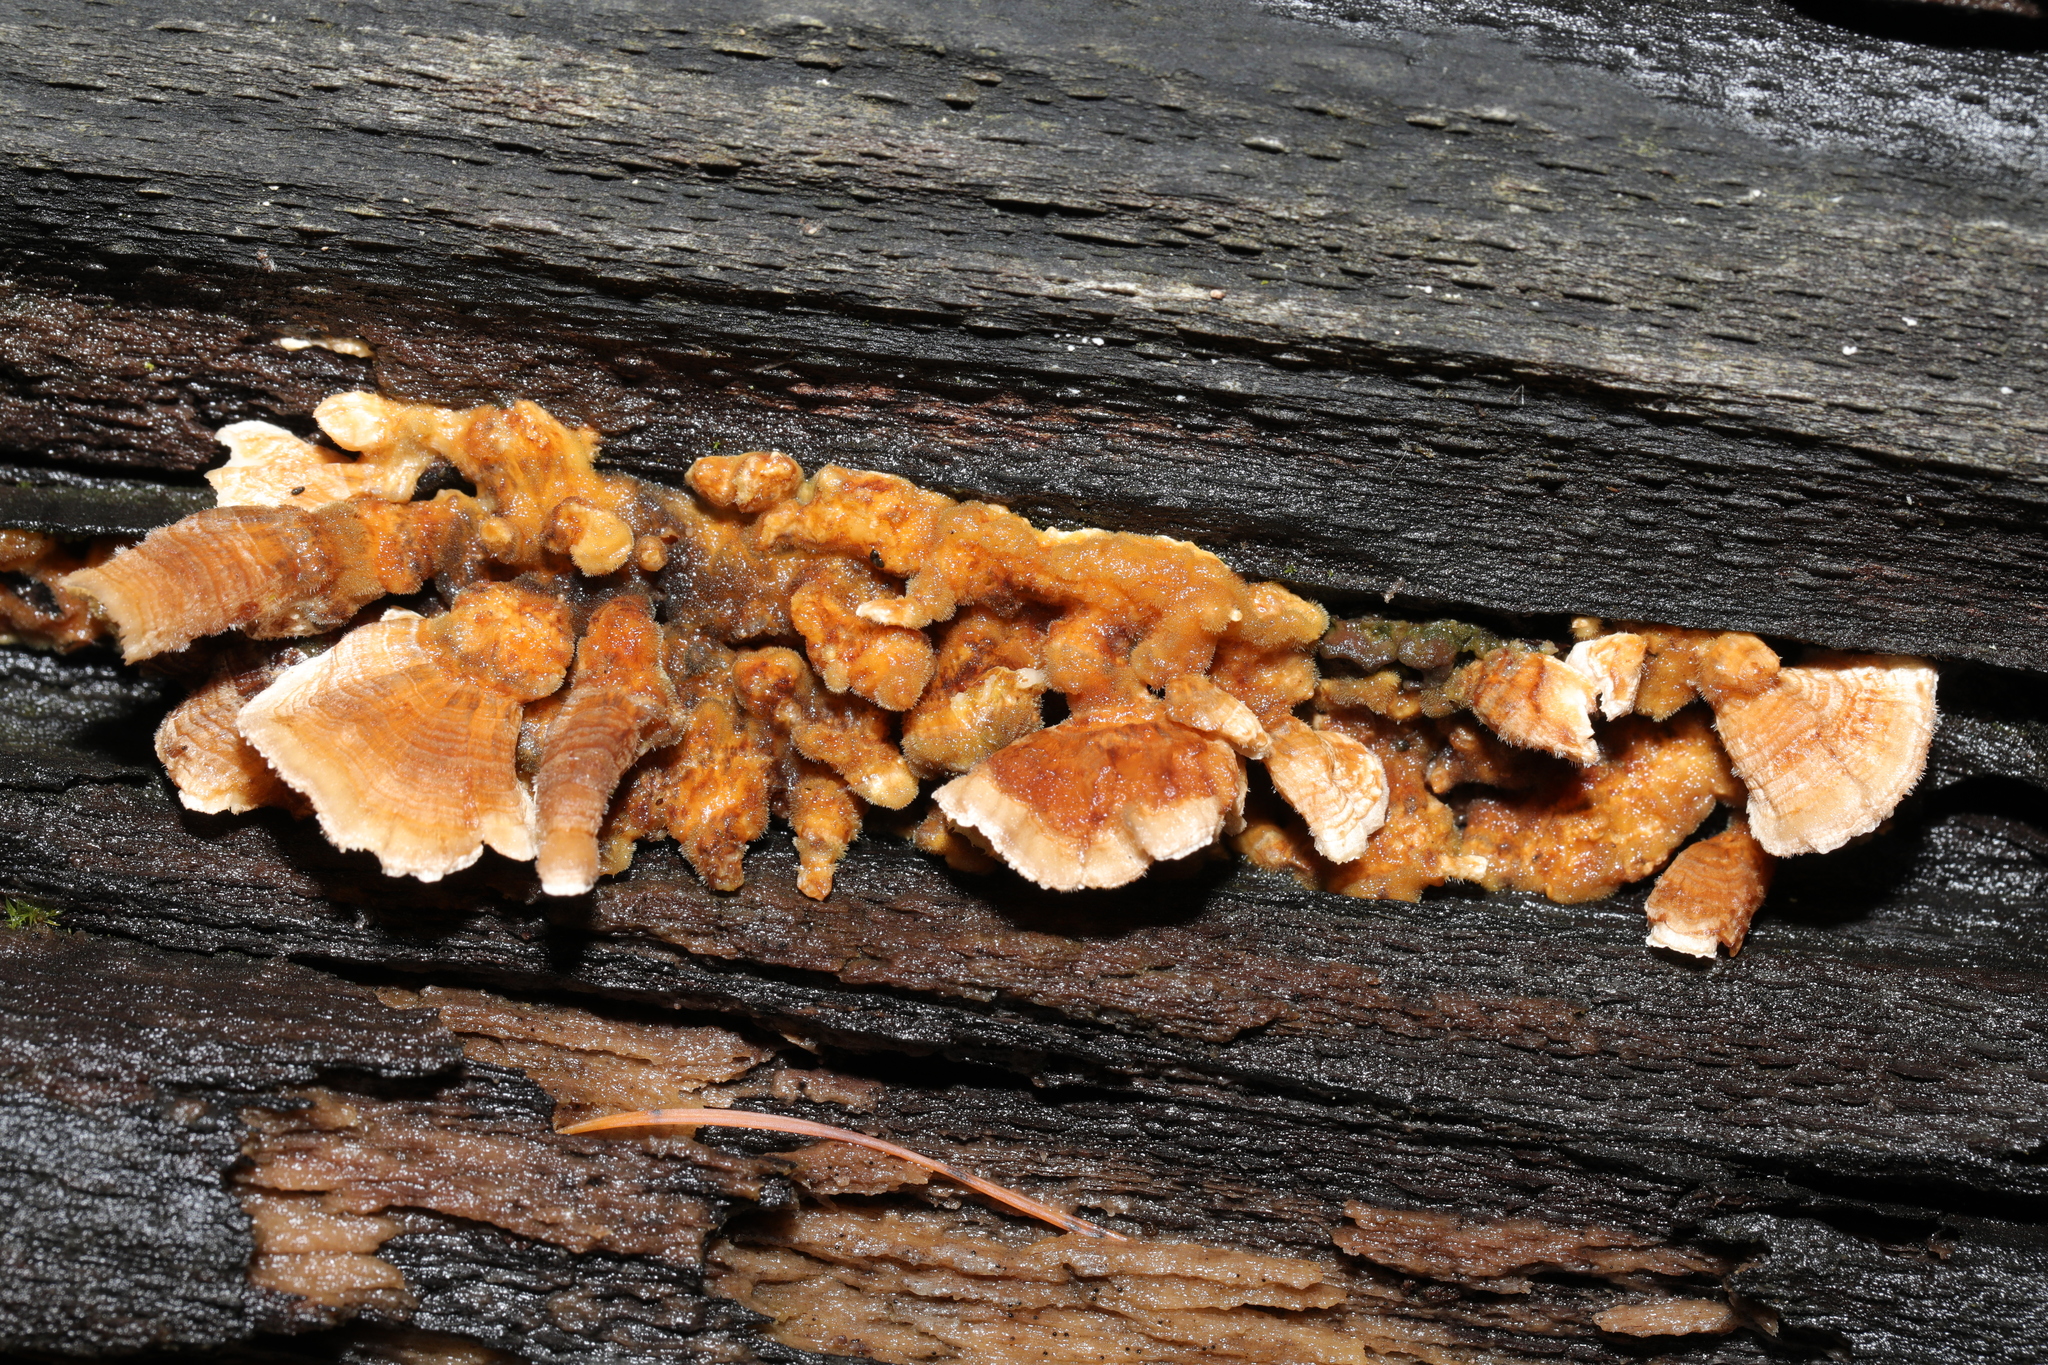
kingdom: Fungi
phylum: Basidiomycota
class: Agaricomycetes
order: Russulales
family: Stereaceae
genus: Stereum
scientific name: Stereum hirsutum
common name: Hairy curtain crust
